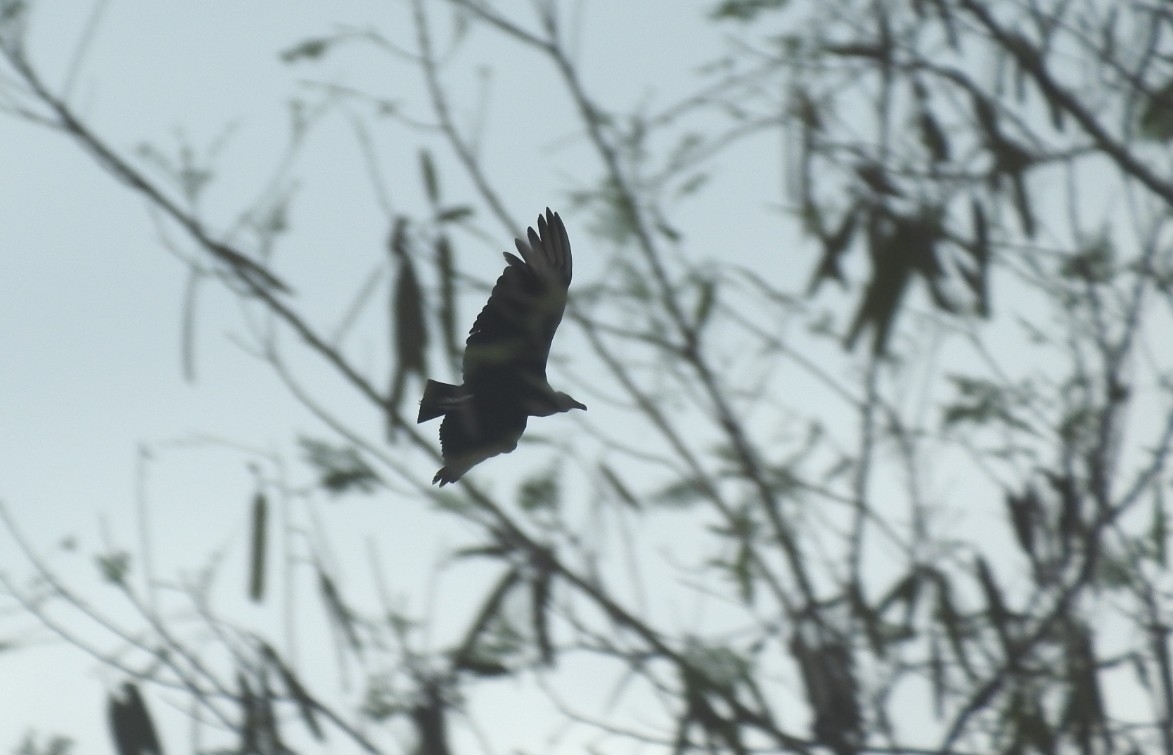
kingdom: Animalia
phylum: Chordata
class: Aves
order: Accipitriformes
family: Cathartidae
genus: Coragyps
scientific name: Coragyps atratus
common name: Black vulture
